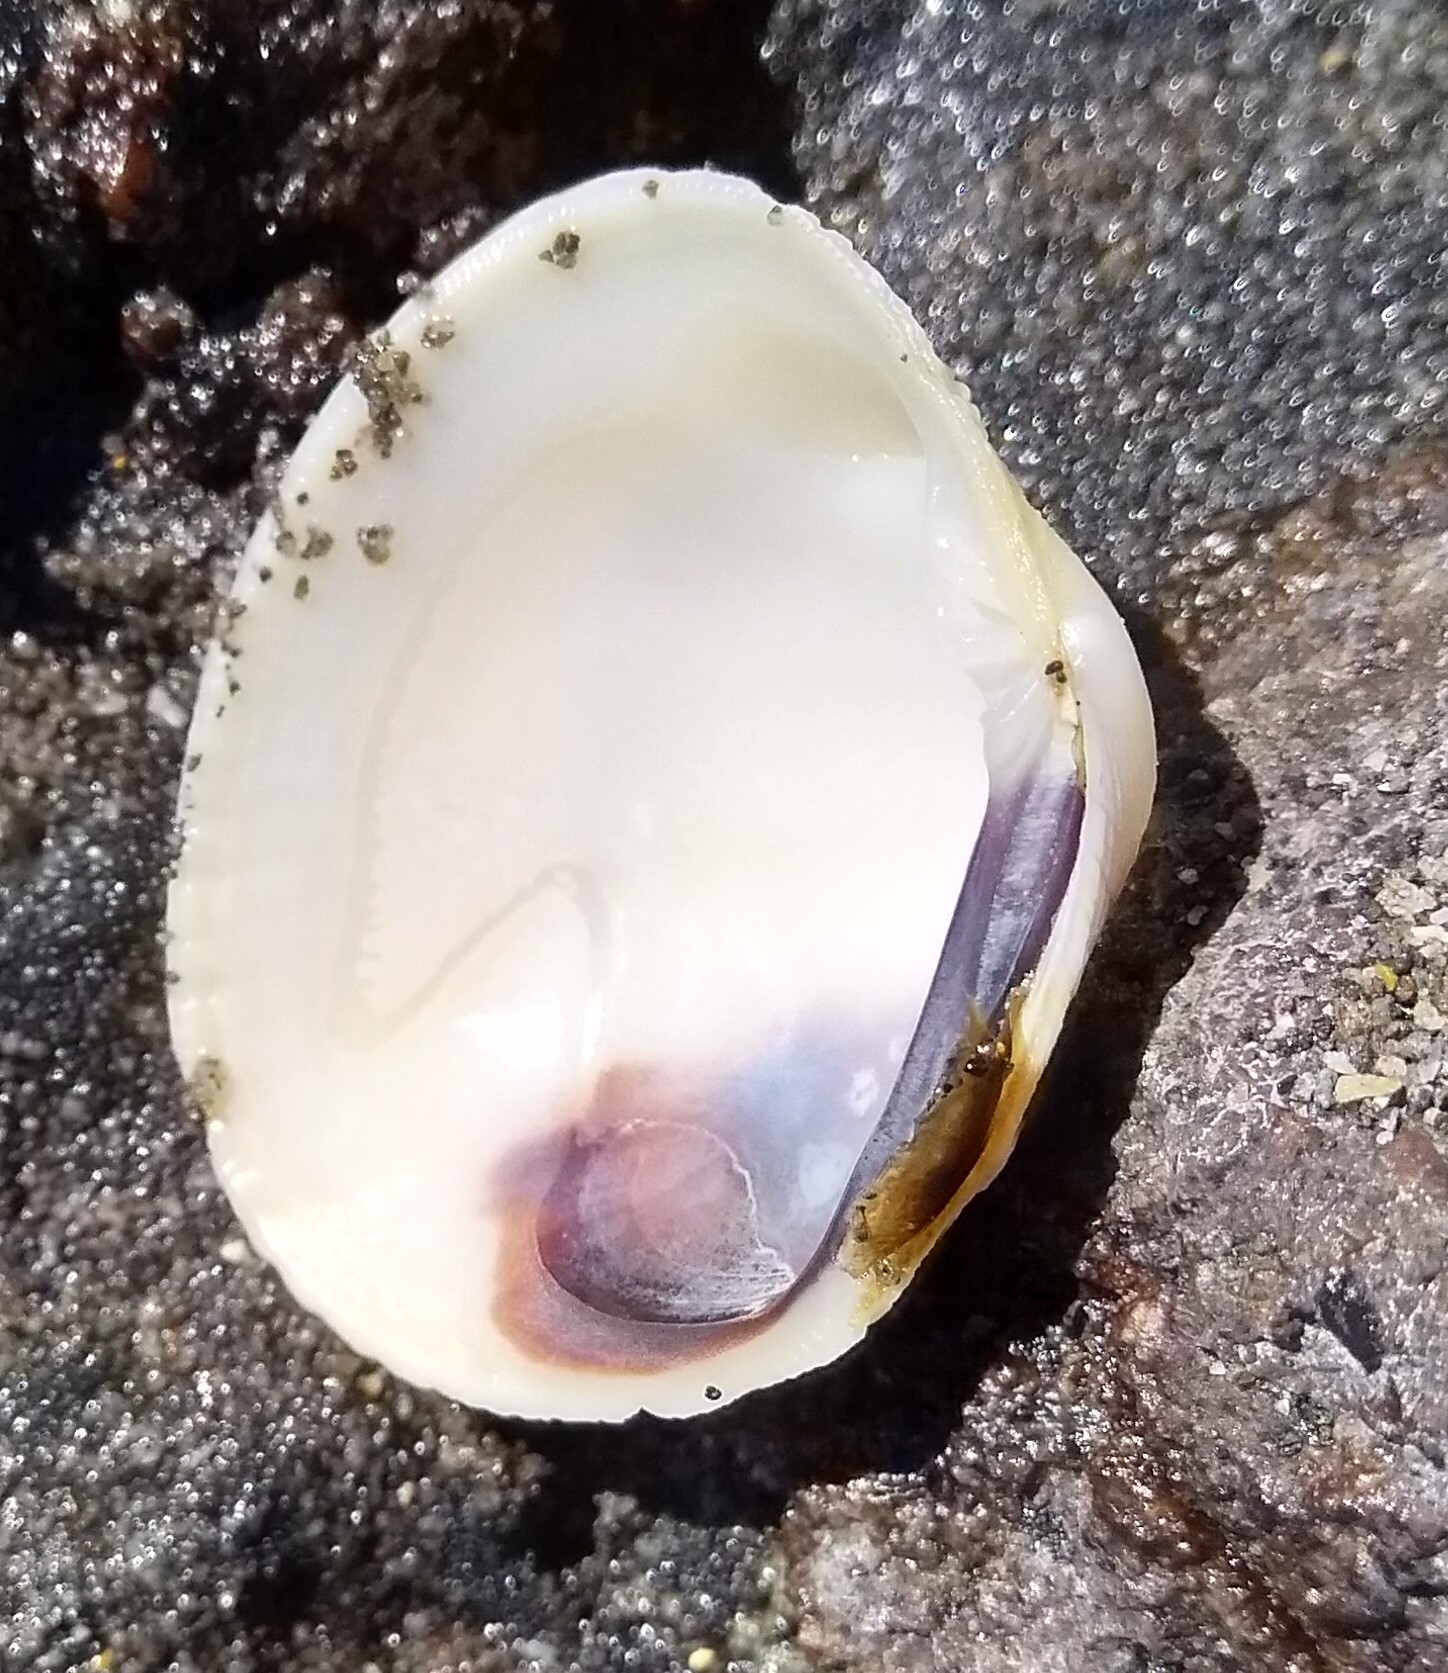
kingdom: Animalia
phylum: Mollusca
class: Bivalvia
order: Venerida
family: Veneridae
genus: Leukoma
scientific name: Leukoma crassicosta
